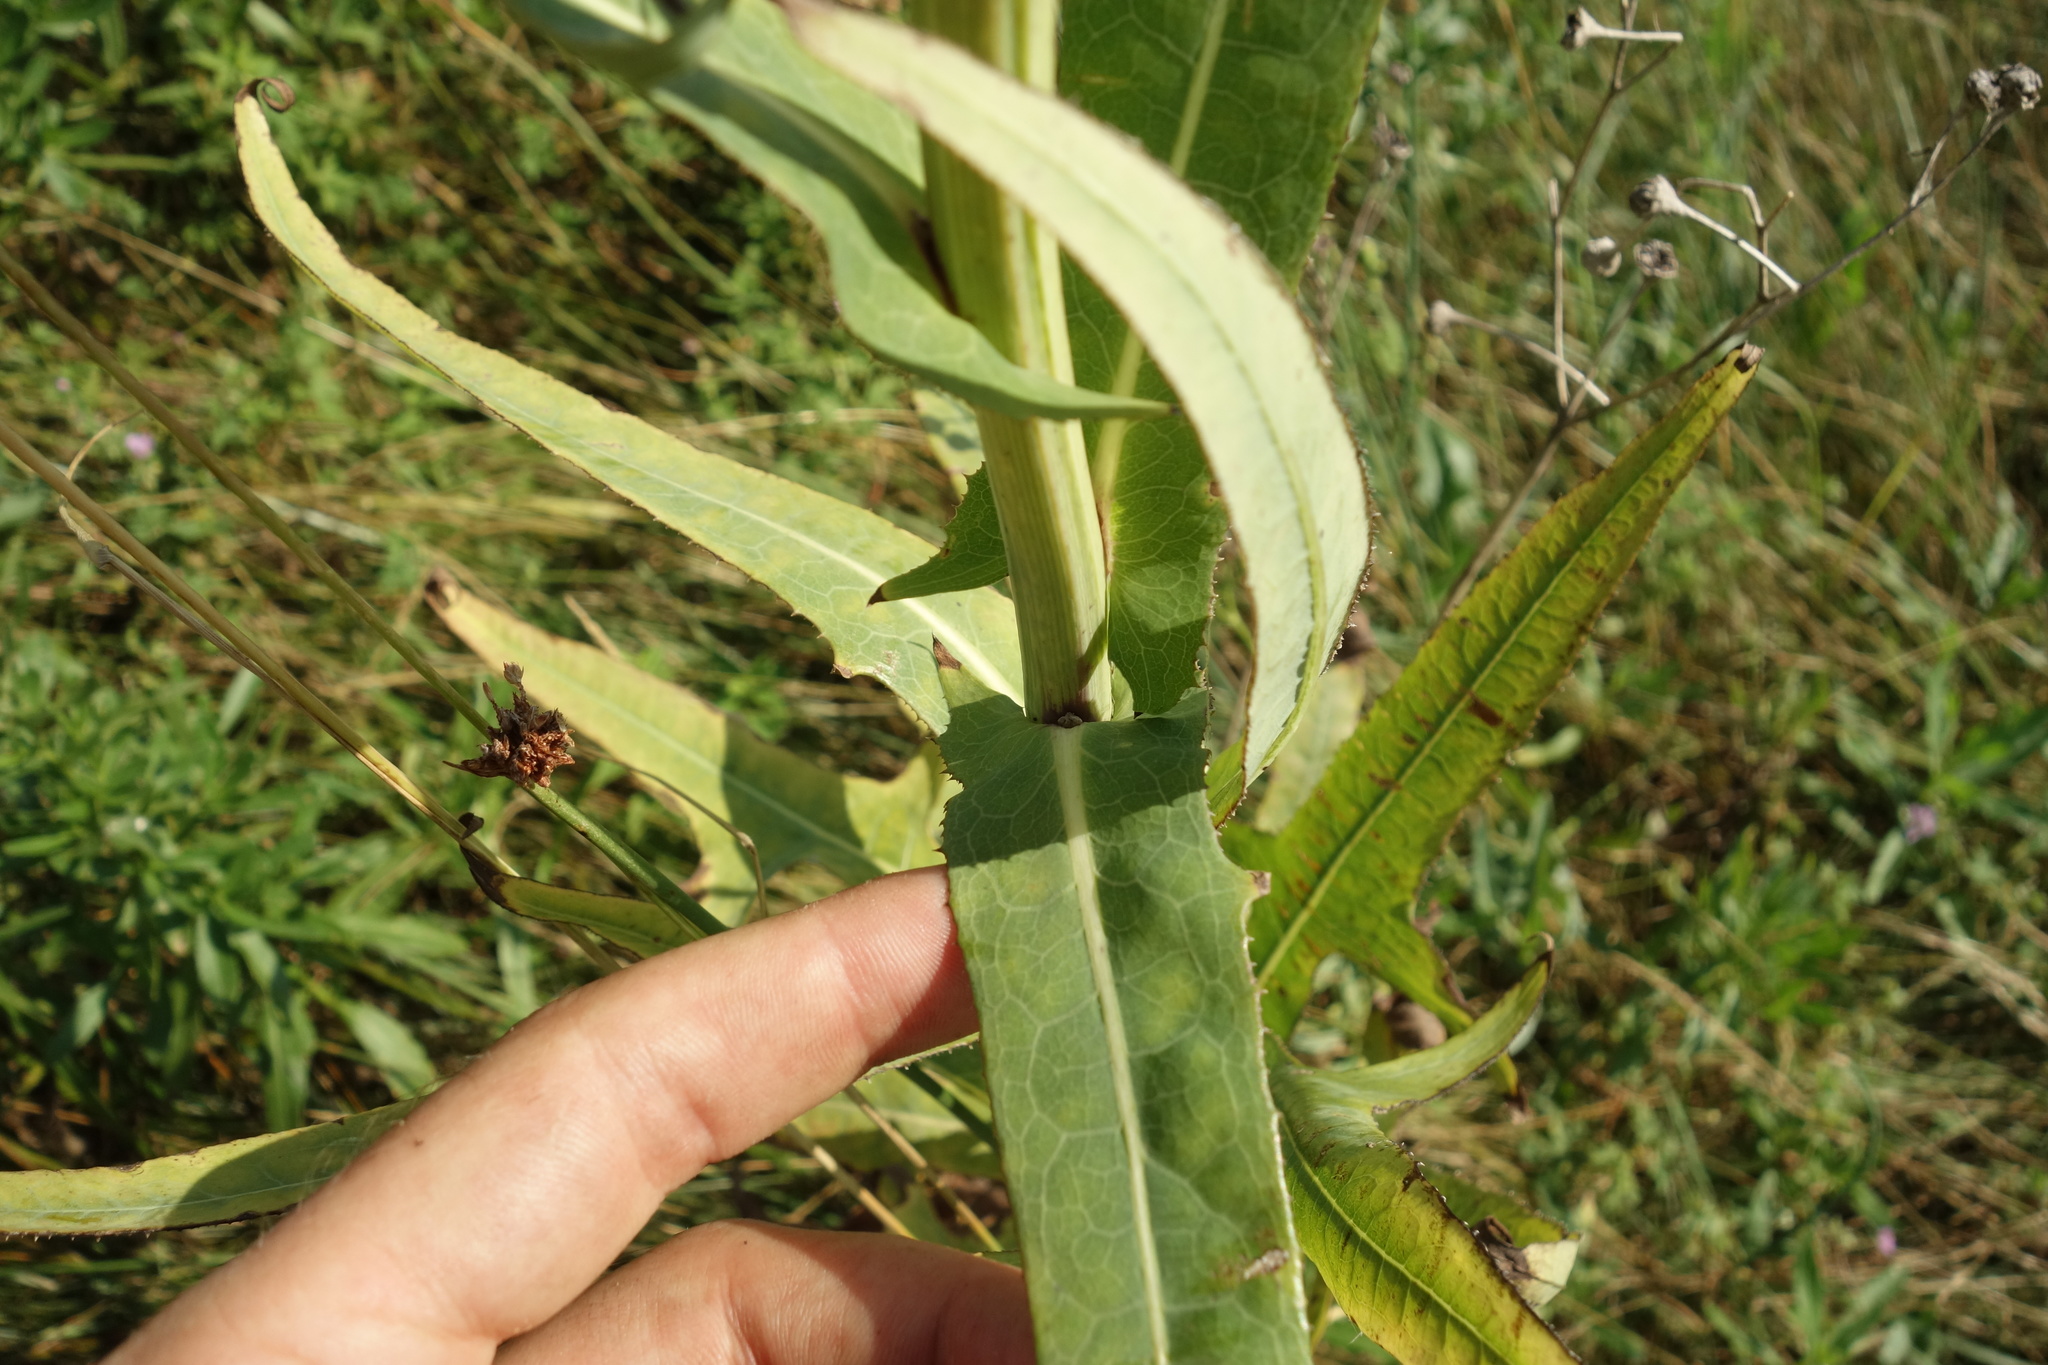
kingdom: Plantae
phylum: Tracheophyta
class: Magnoliopsida
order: Asterales
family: Asteraceae
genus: Sonchus
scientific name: Sonchus palustris
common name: Marsh sow-thistle
